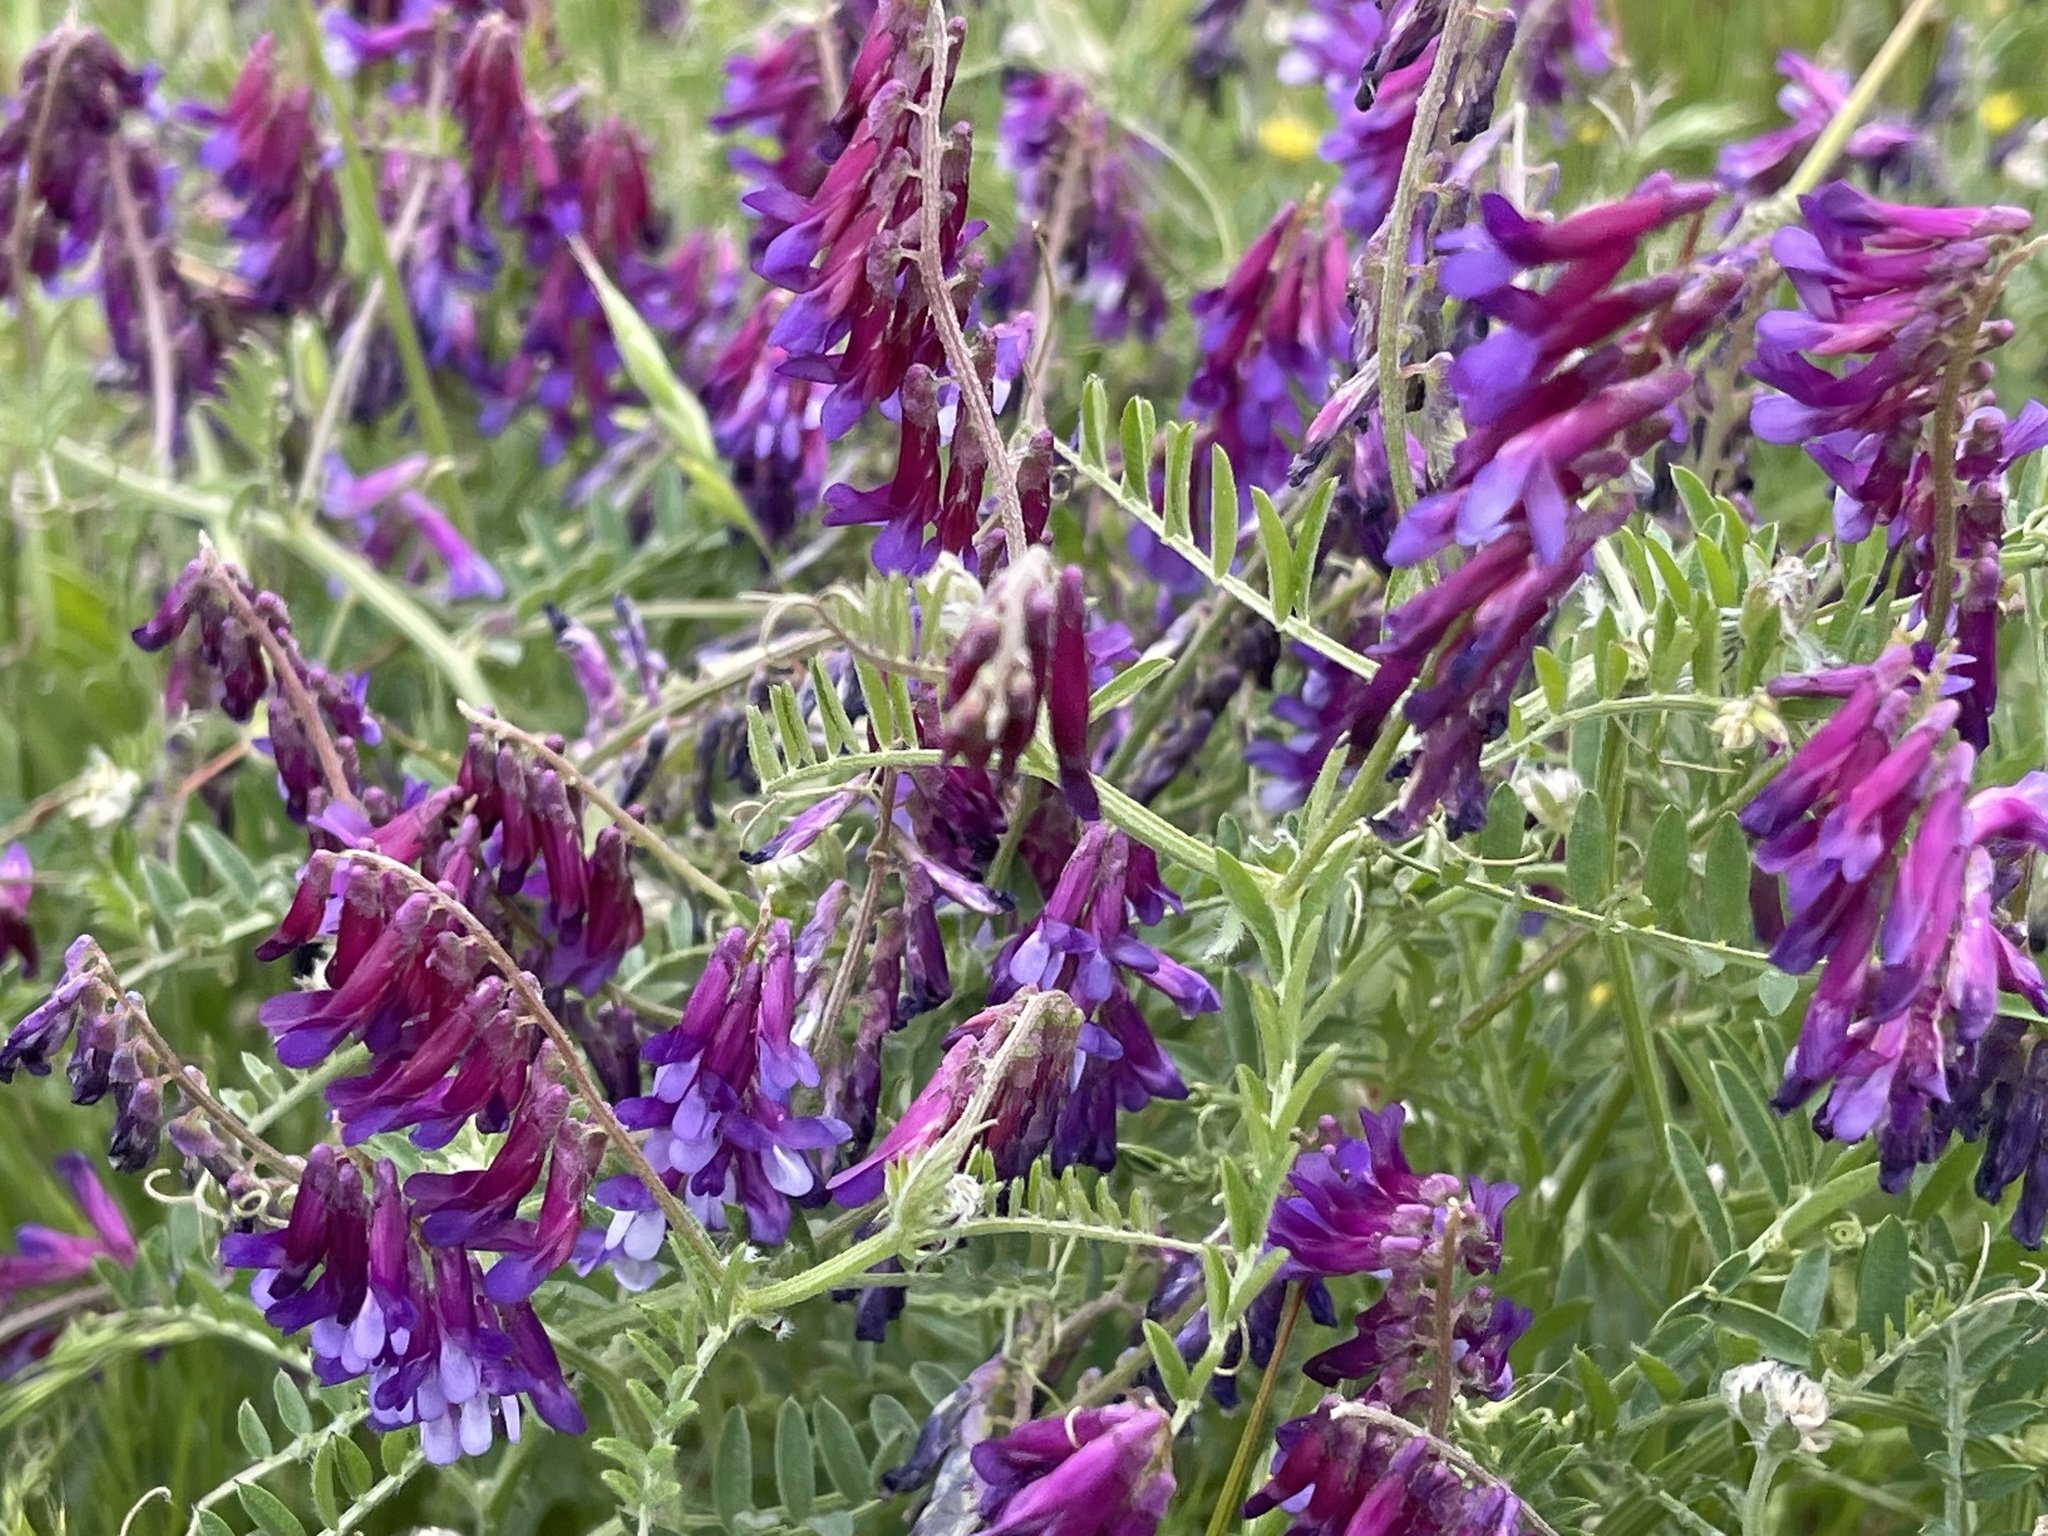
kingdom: Plantae
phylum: Tracheophyta
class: Magnoliopsida
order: Fabales
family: Fabaceae
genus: Vicia
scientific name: Vicia villosa
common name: Fodder vetch
